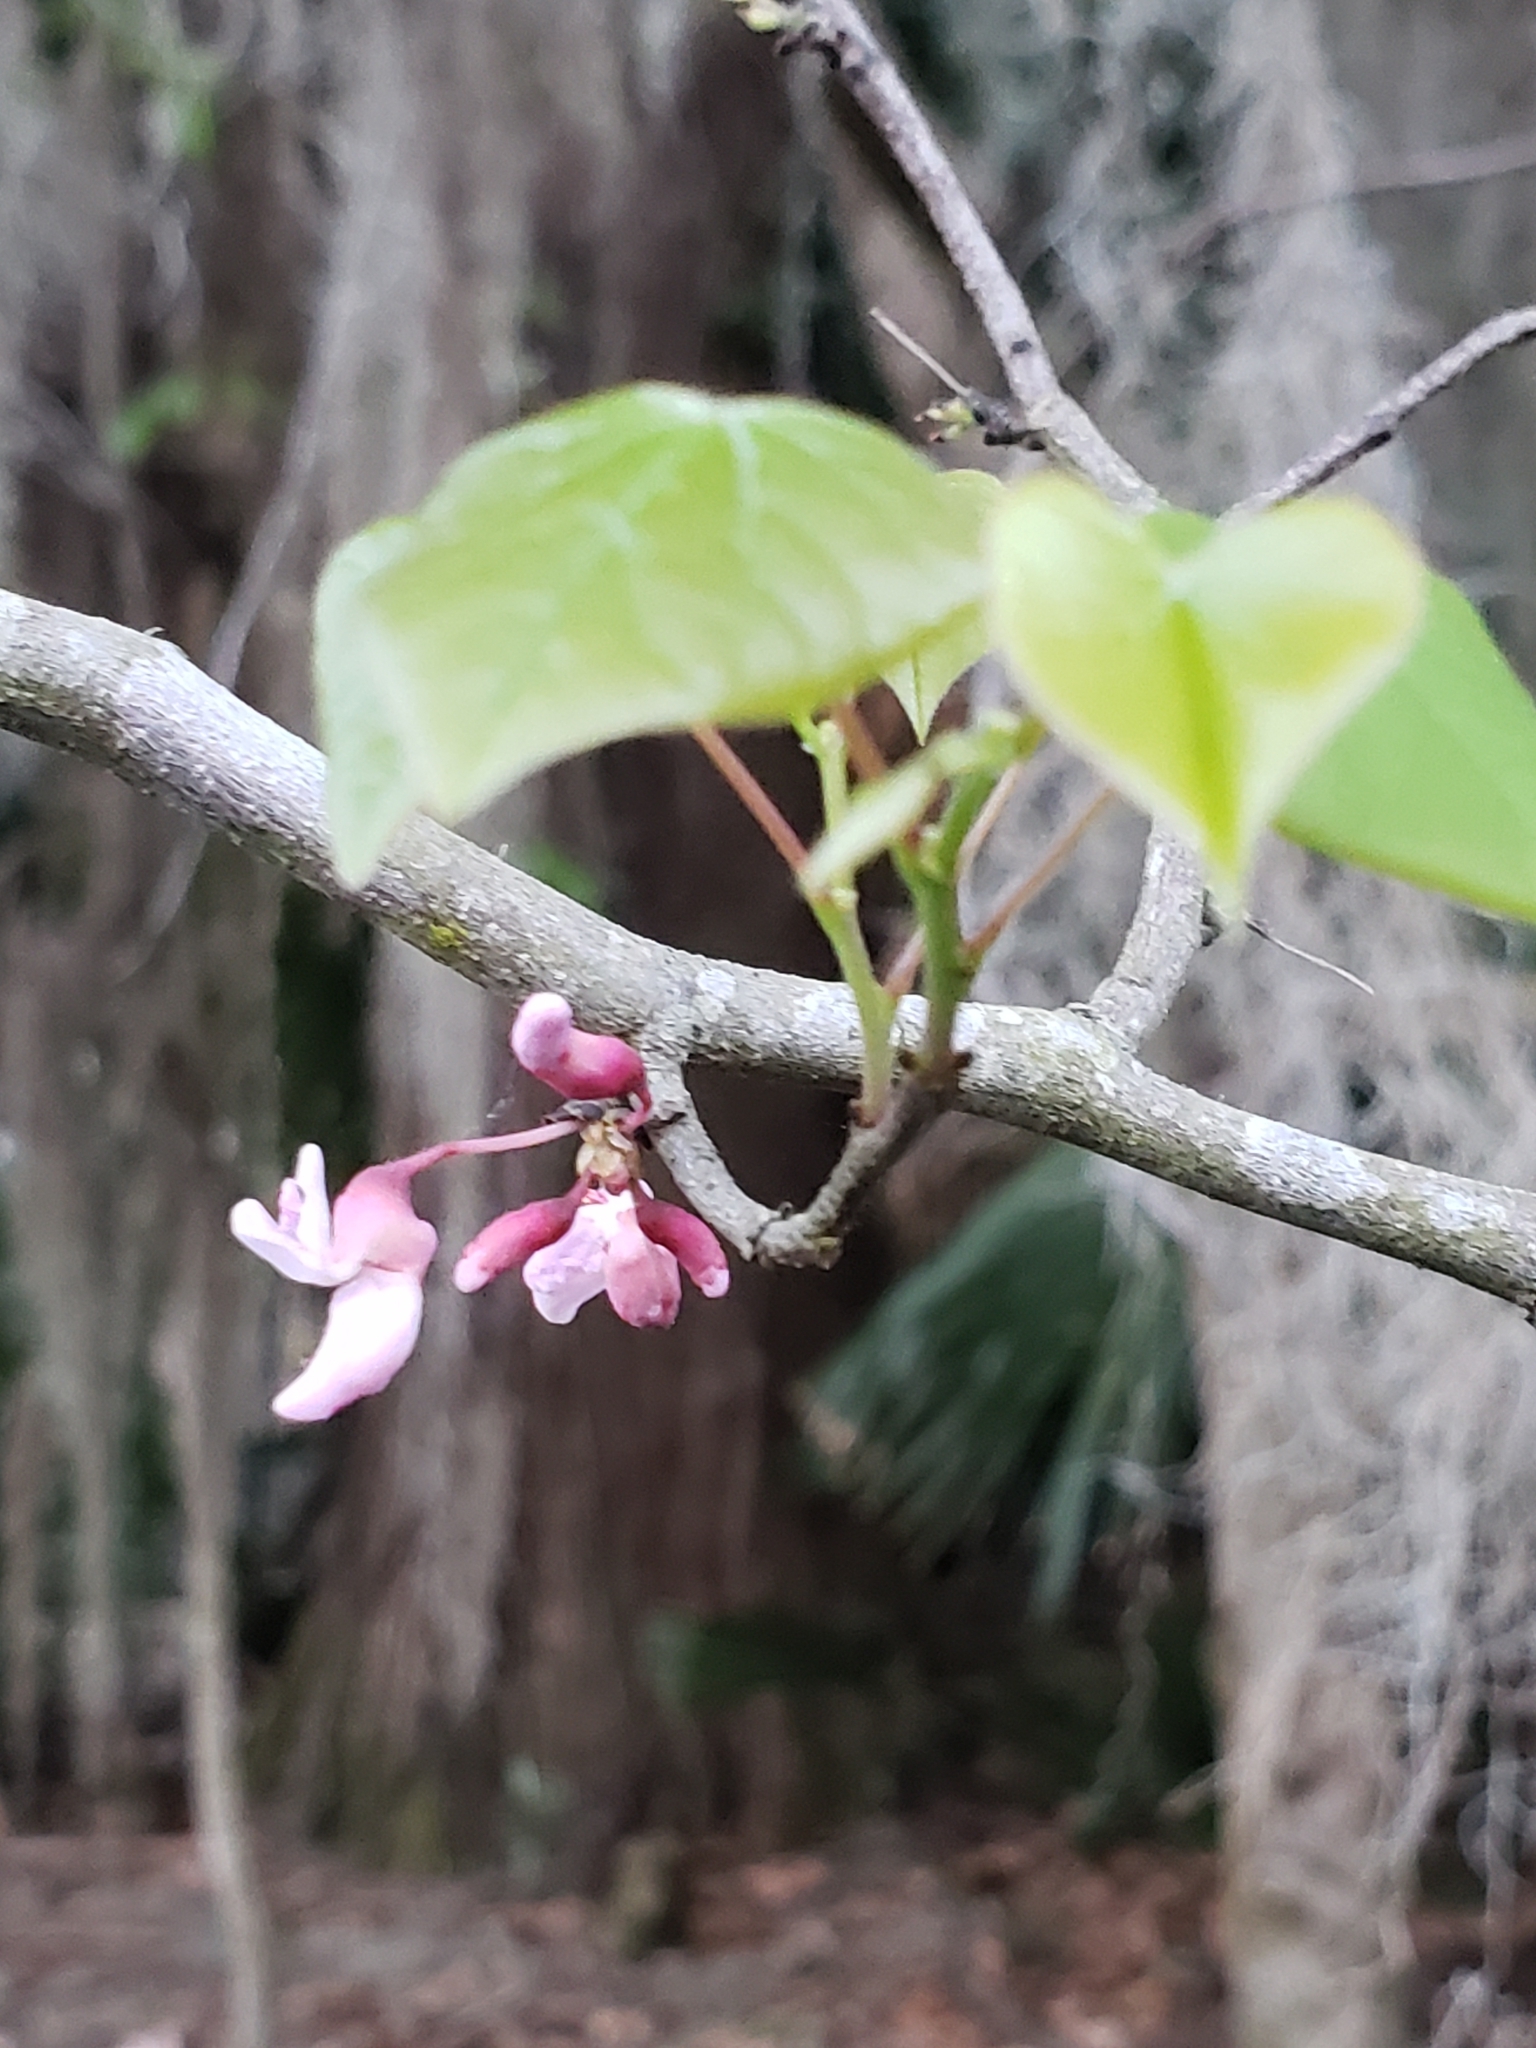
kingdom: Plantae
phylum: Tracheophyta
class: Magnoliopsida
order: Fabales
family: Fabaceae
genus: Cercis
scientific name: Cercis canadensis
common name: Eastern redbud
